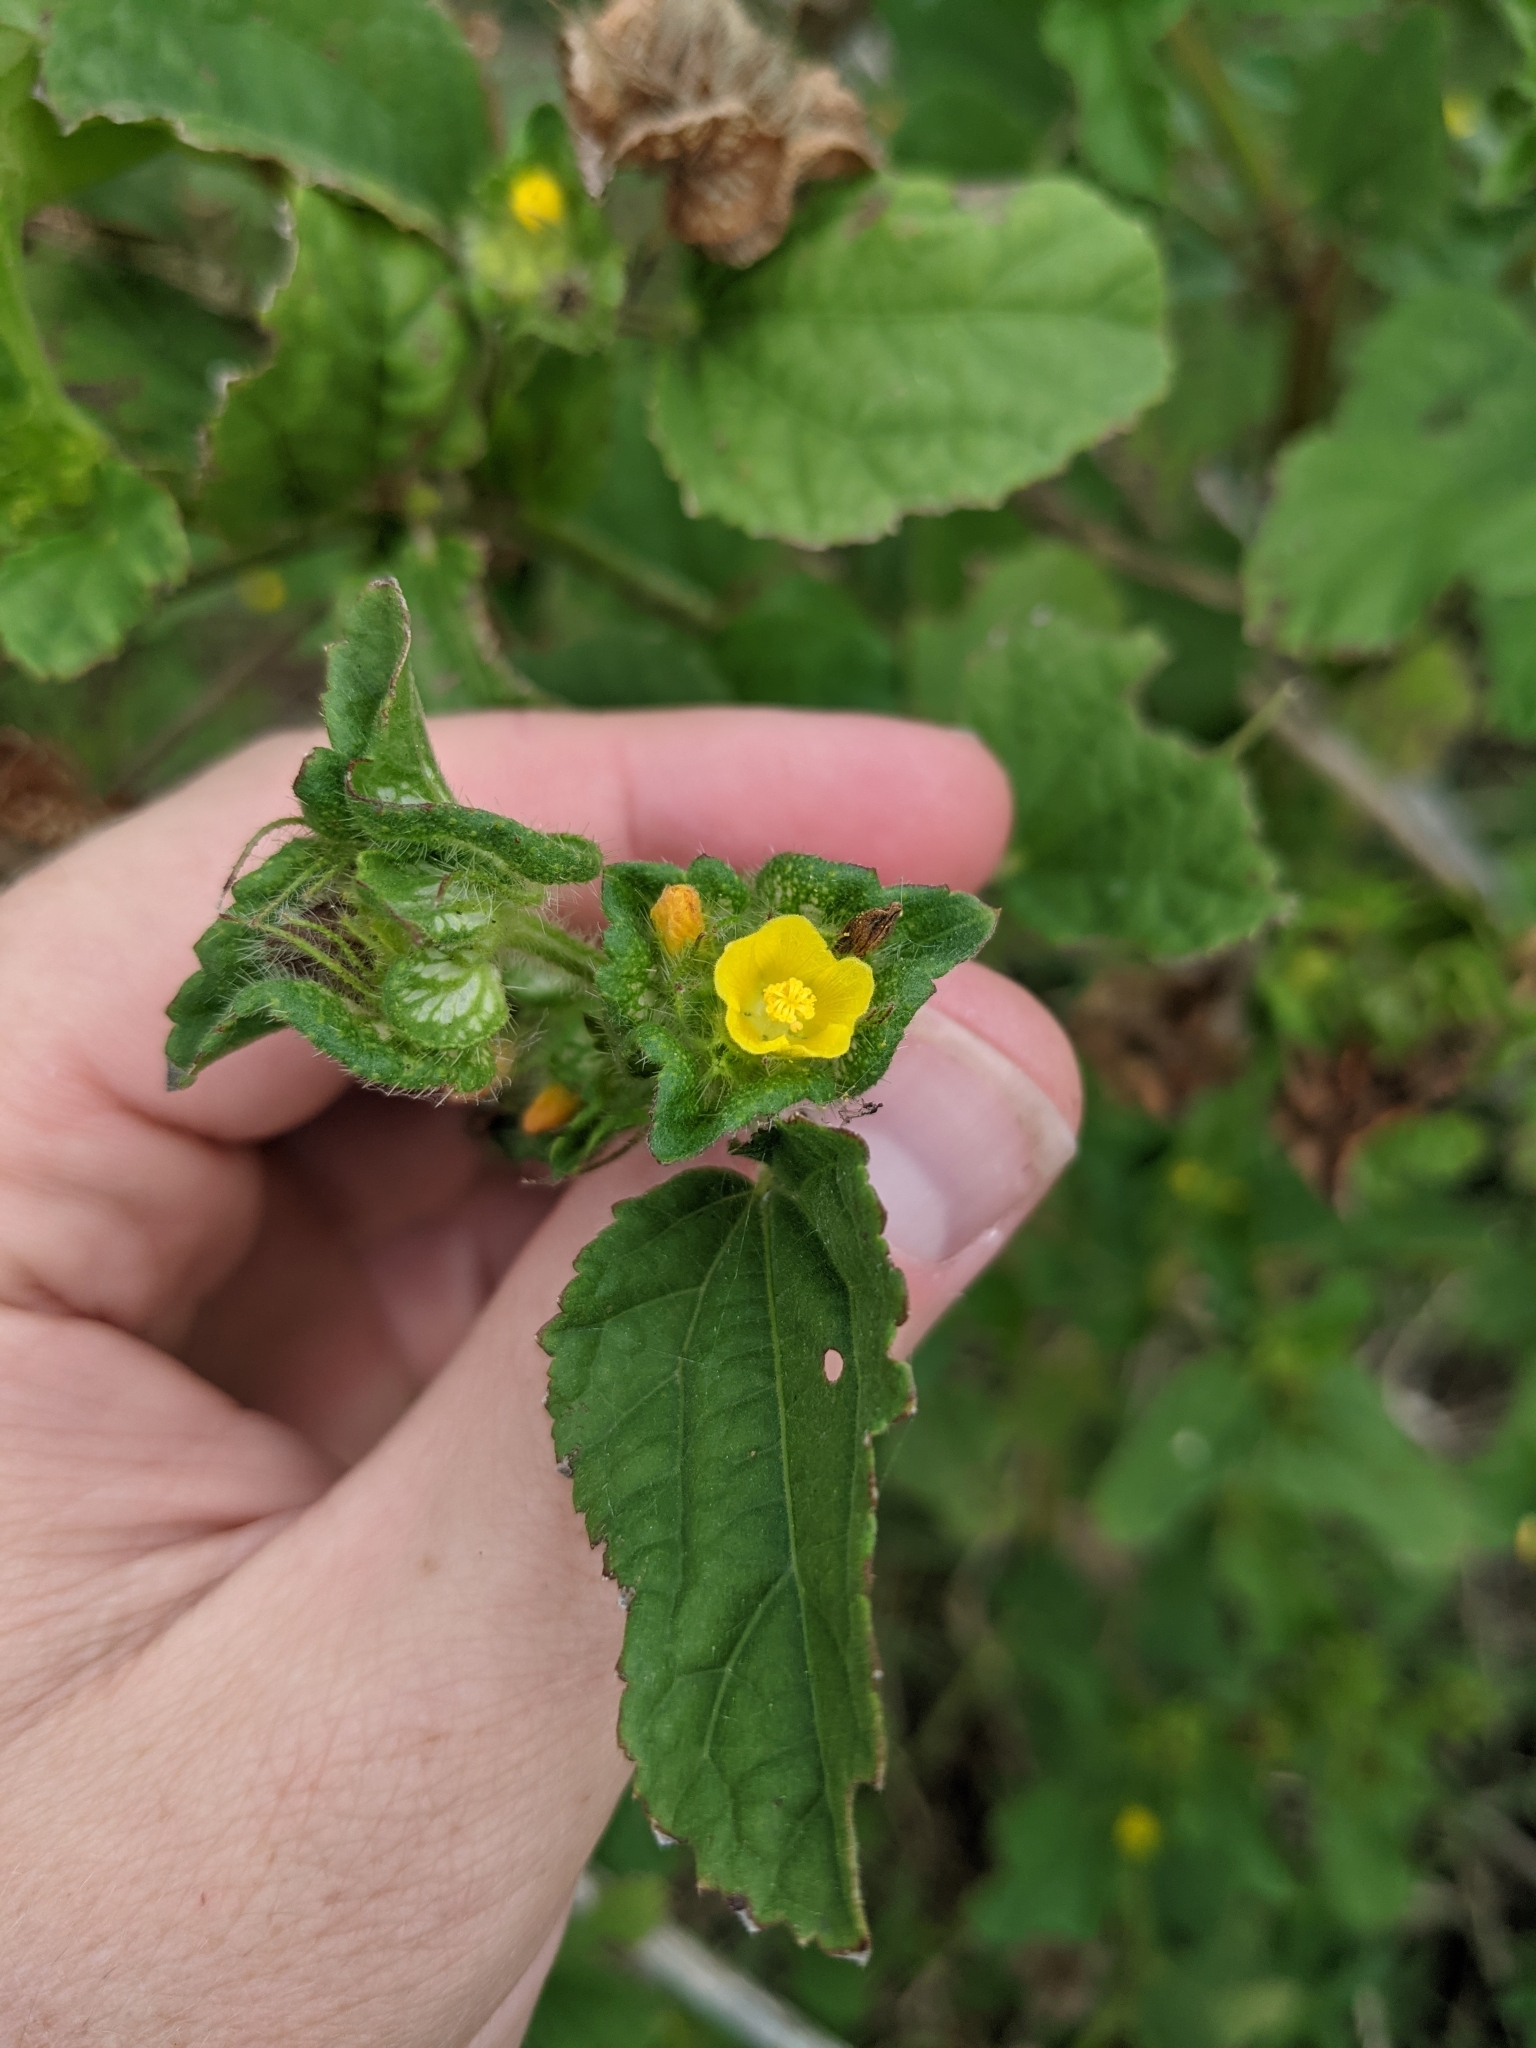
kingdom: Plantae
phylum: Tracheophyta
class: Magnoliopsida
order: Malvales
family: Malvaceae
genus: Malachra
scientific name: Malachra capitata
